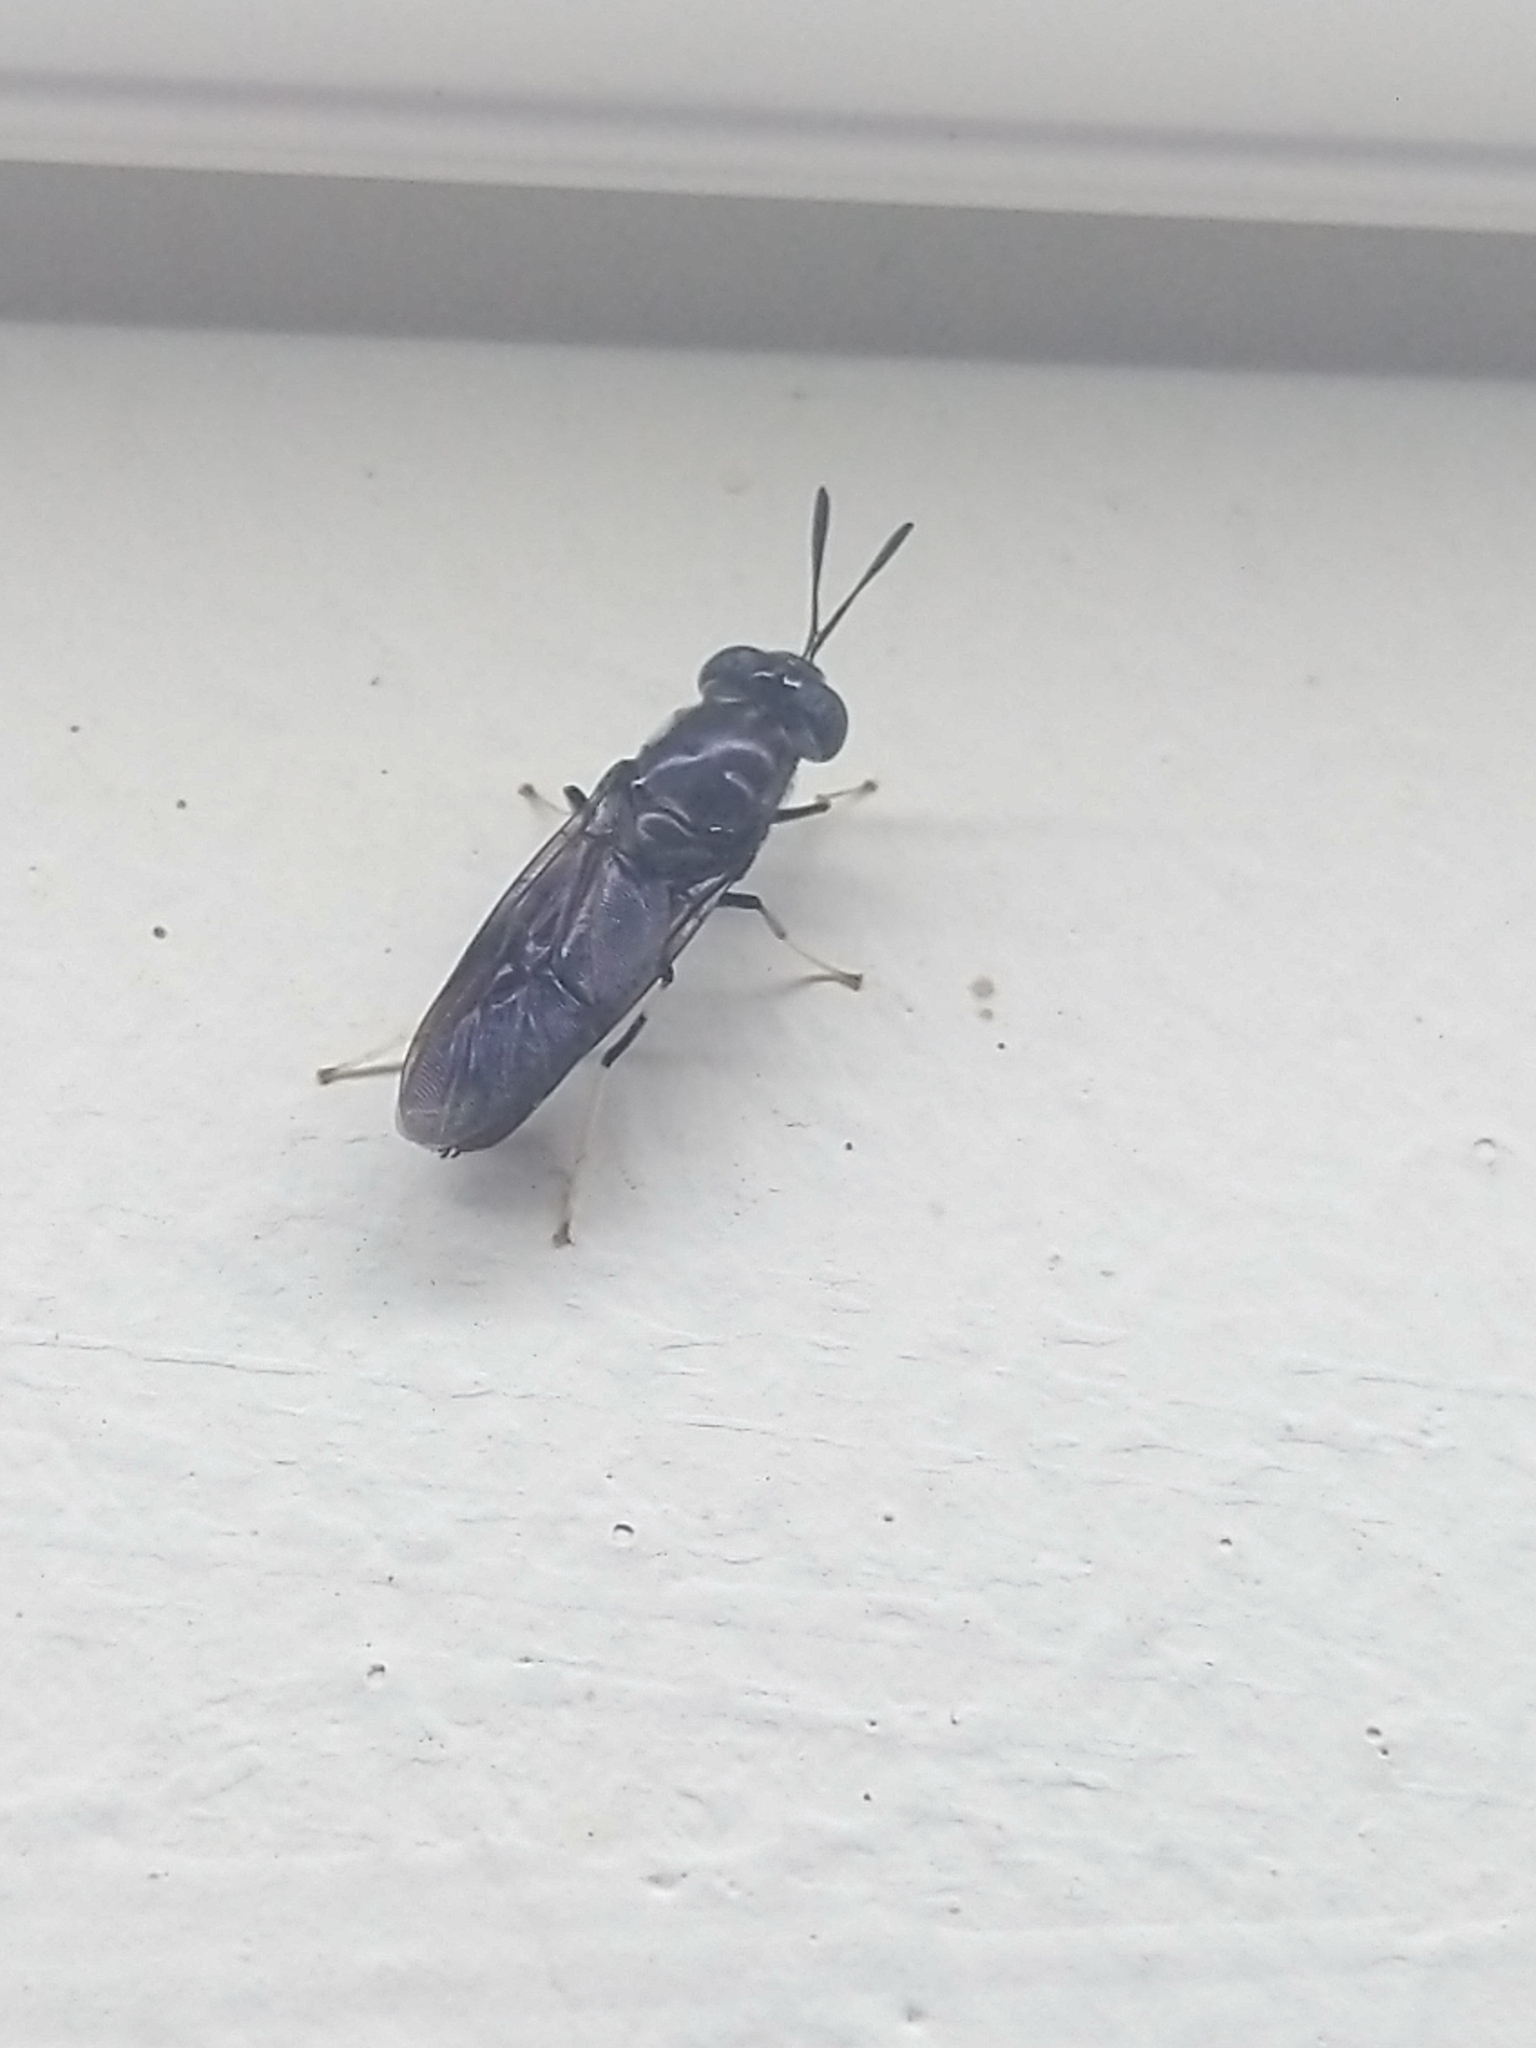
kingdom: Animalia
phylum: Arthropoda
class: Insecta
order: Diptera
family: Stratiomyidae
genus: Hermetia
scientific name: Hermetia illucens
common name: Black soldier fly
